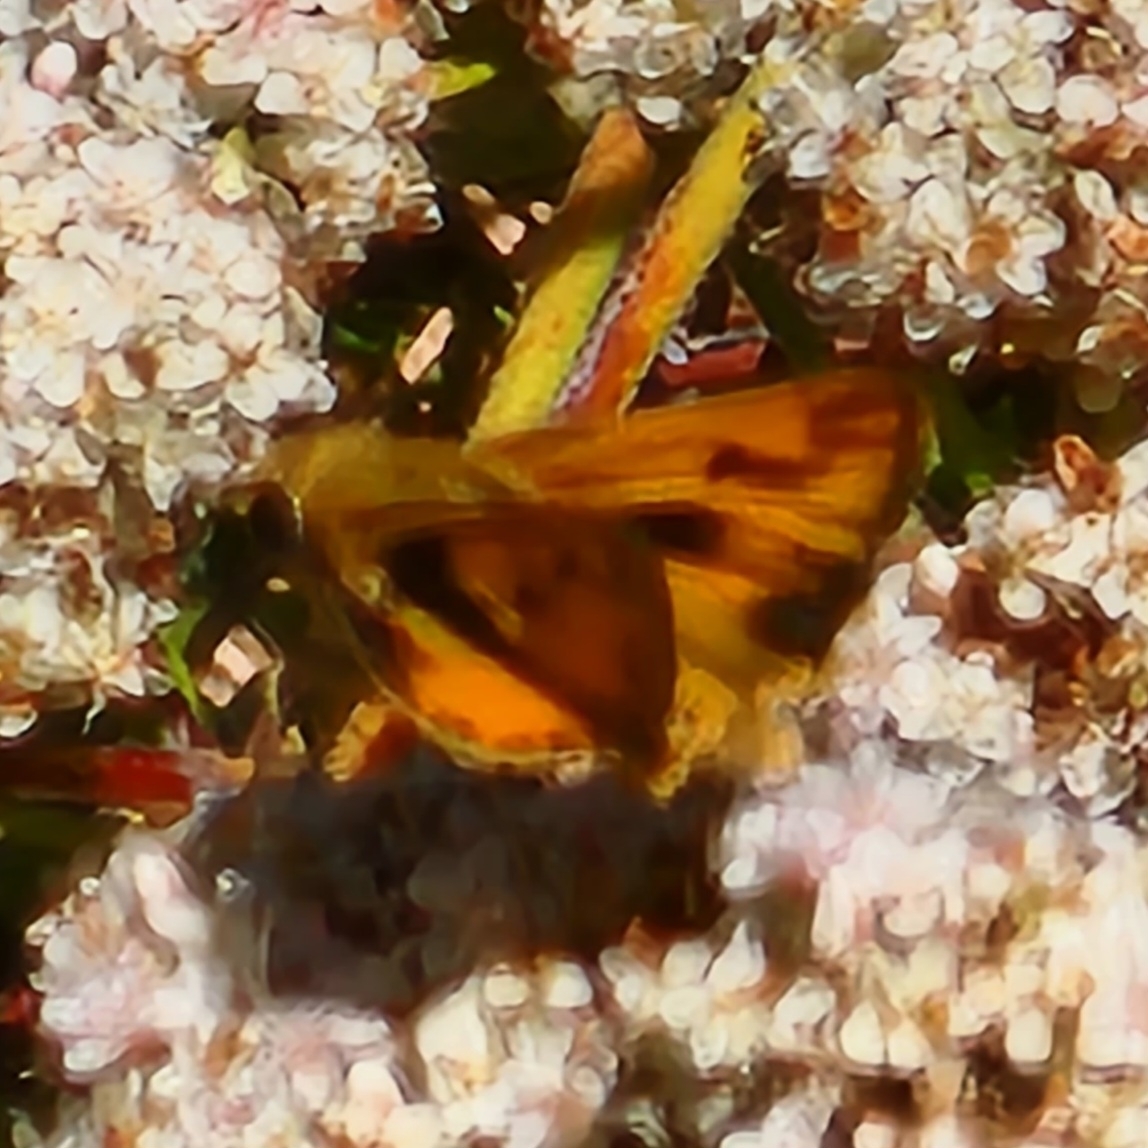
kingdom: Animalia
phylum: Arthropoda
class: Insecta
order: Lepidoptera
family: Hesperiidae
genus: Hylephila
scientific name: Hylephila phyleus
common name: Fiery skipper
